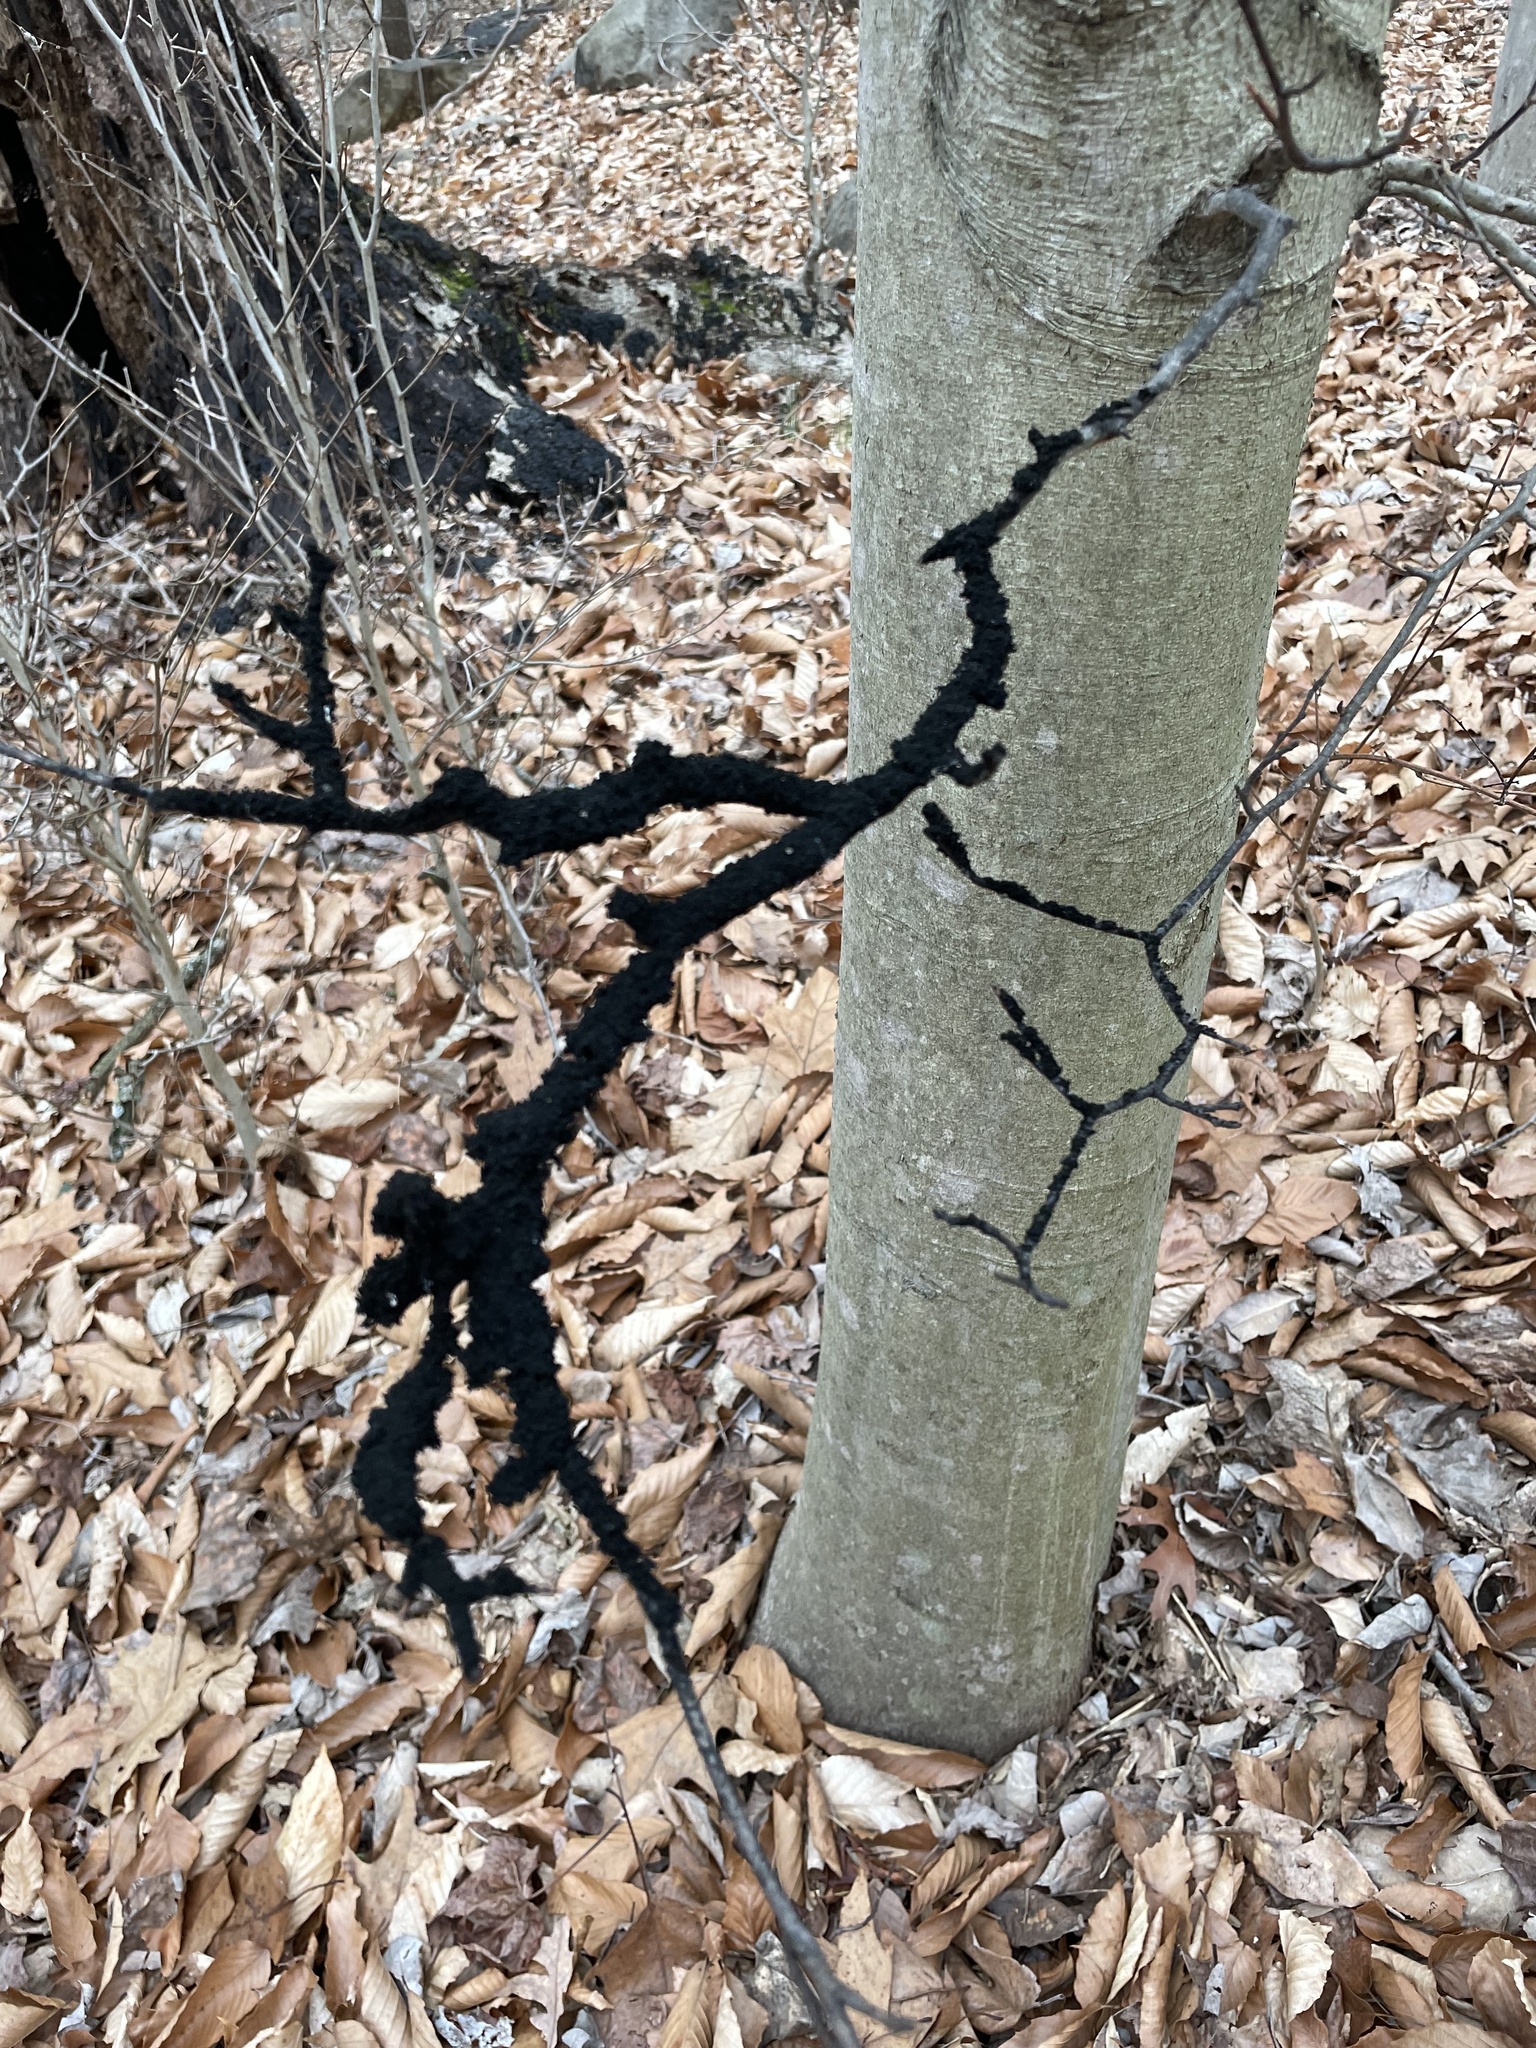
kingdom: Fungi
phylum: Ascomycota
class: Dothideomycetes
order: Capnodiales
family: Capnodiaceae
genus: Scorias
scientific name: Scorias spongiosa
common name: Black sooty mold
